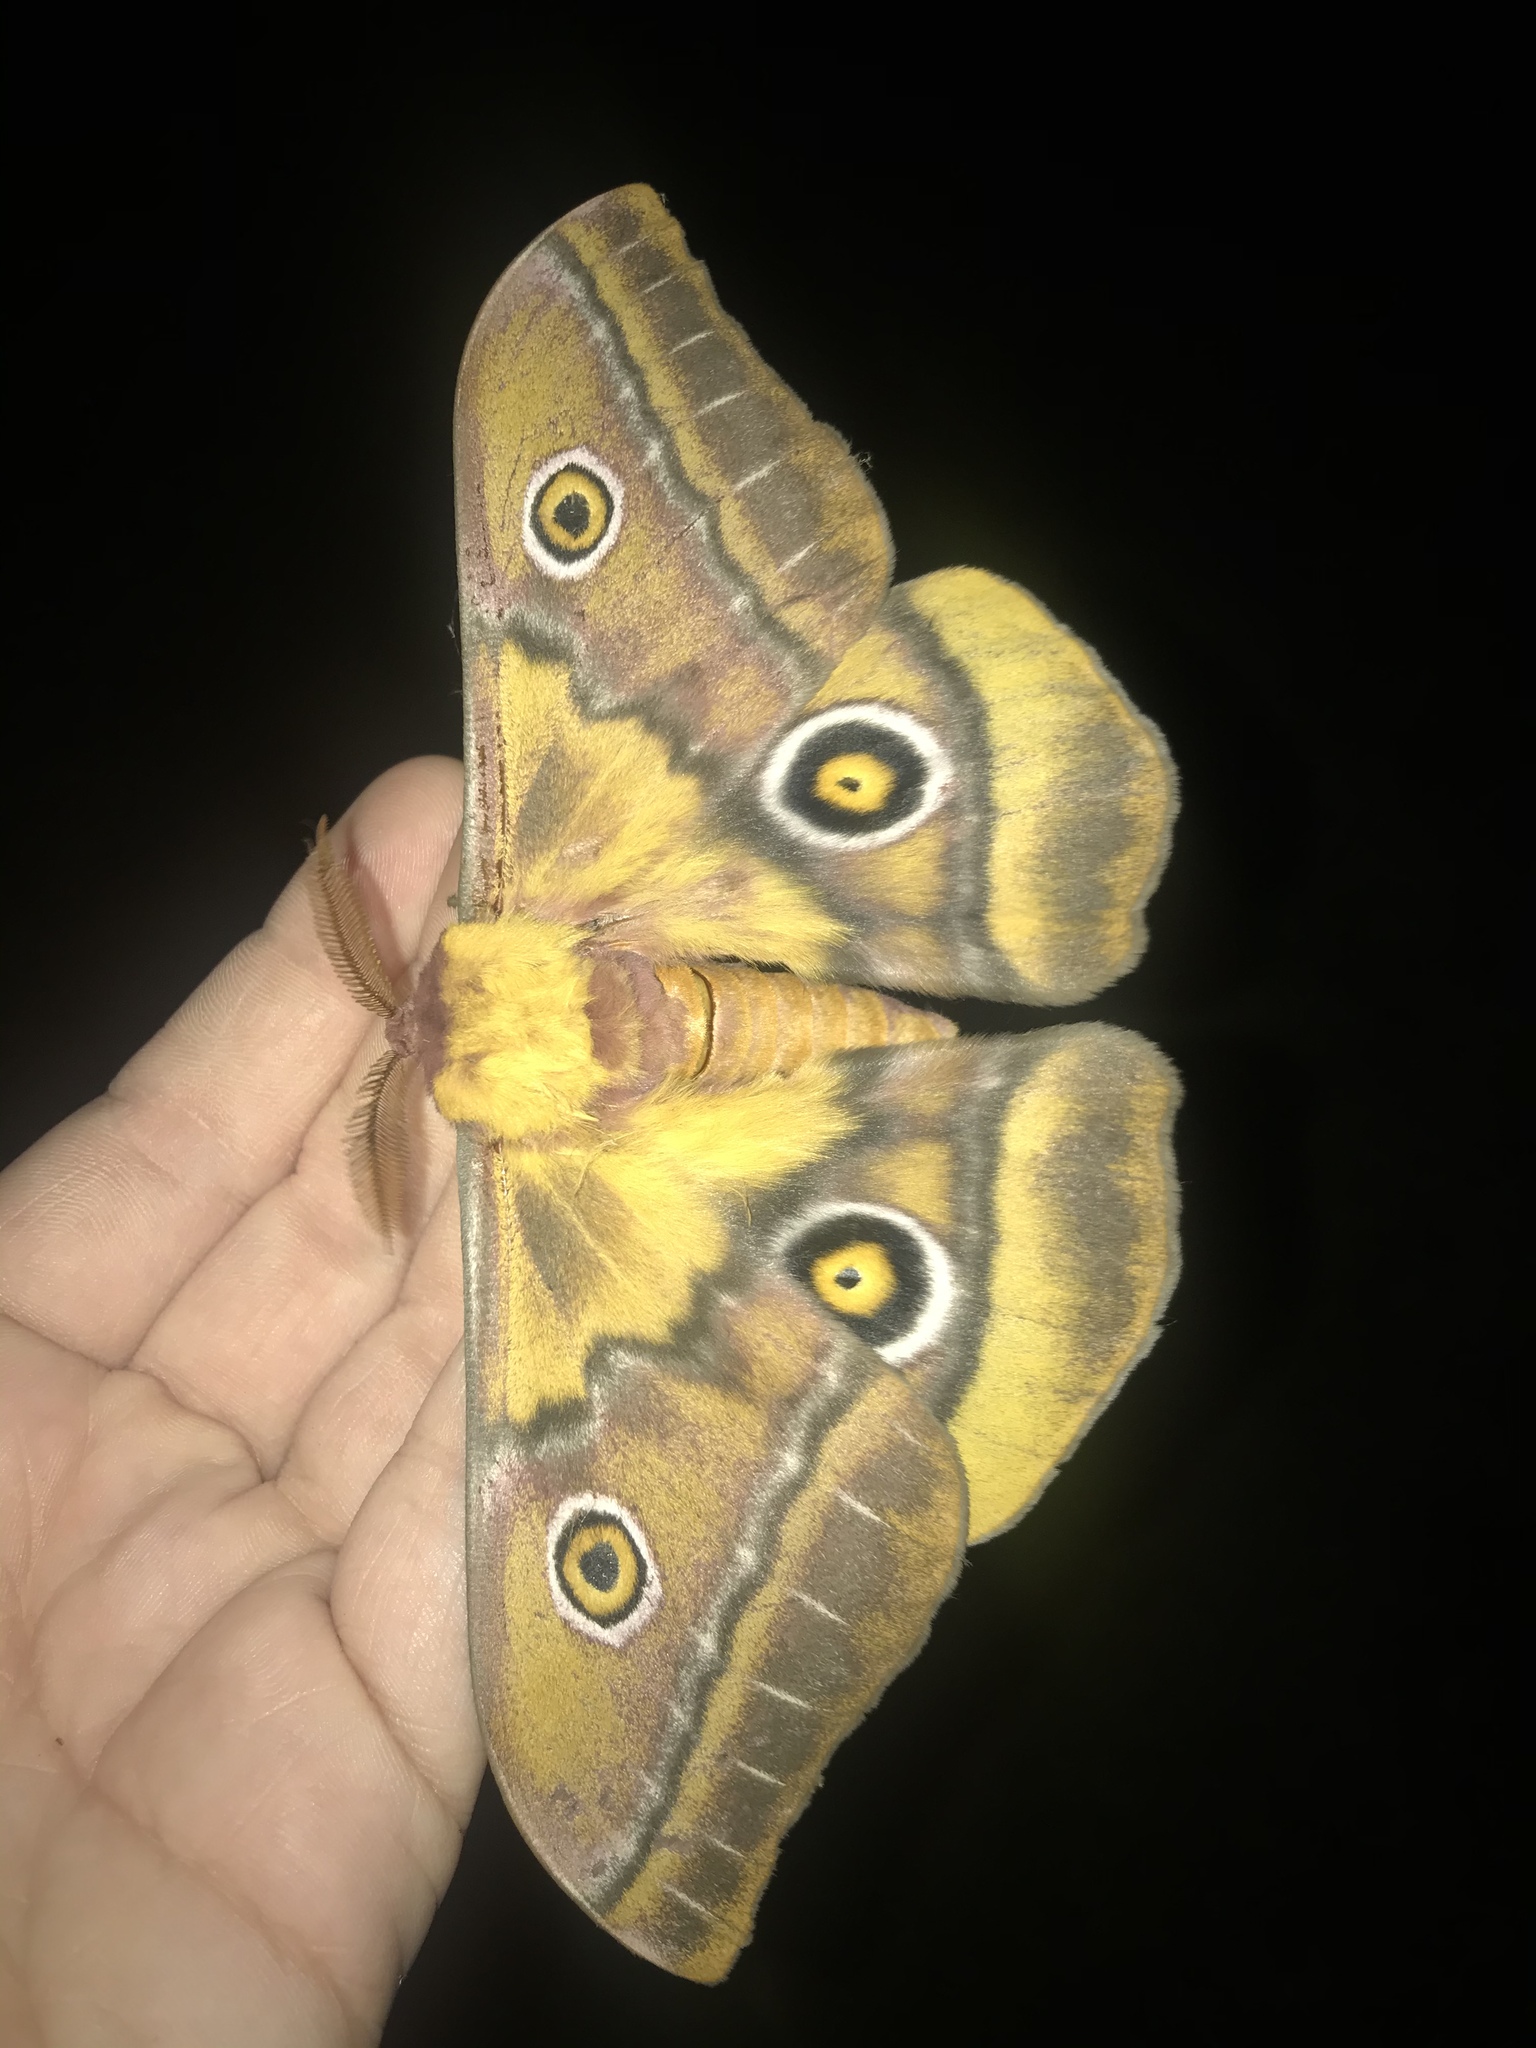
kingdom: Animalia
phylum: Arthropoda
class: Insecta
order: Lepidoptera
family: Saturniidae
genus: Nudaurelia
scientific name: Nudaurelia cytherea
